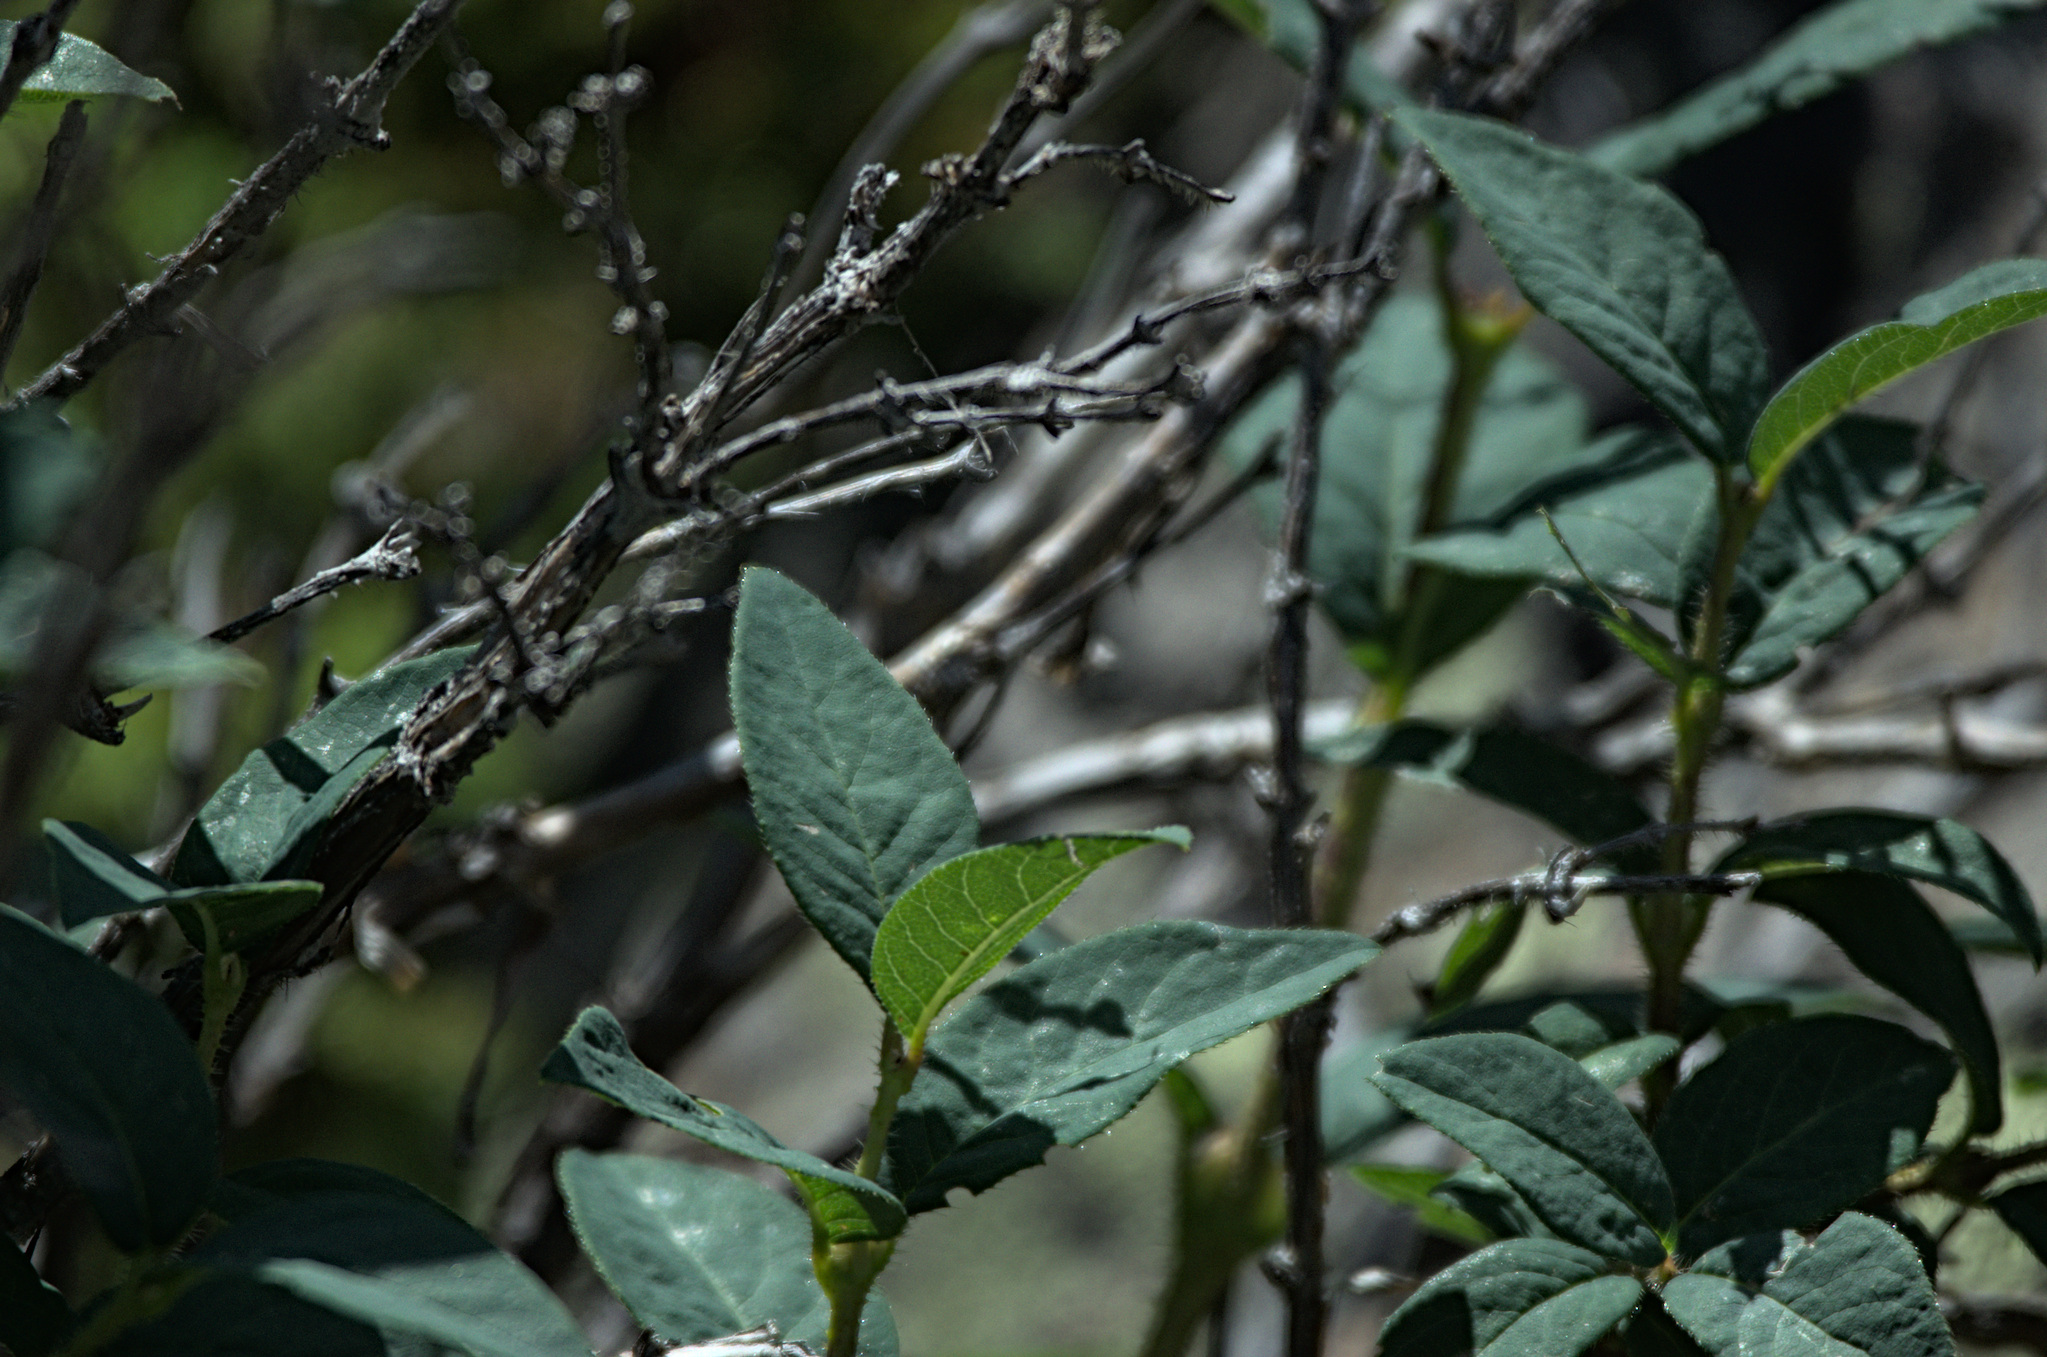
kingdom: Plantae
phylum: Tracheophyta
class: Magnoliopsida
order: Dipsacales
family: Caprifoliaceae
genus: Lonicera
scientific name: Lonicera hispida
